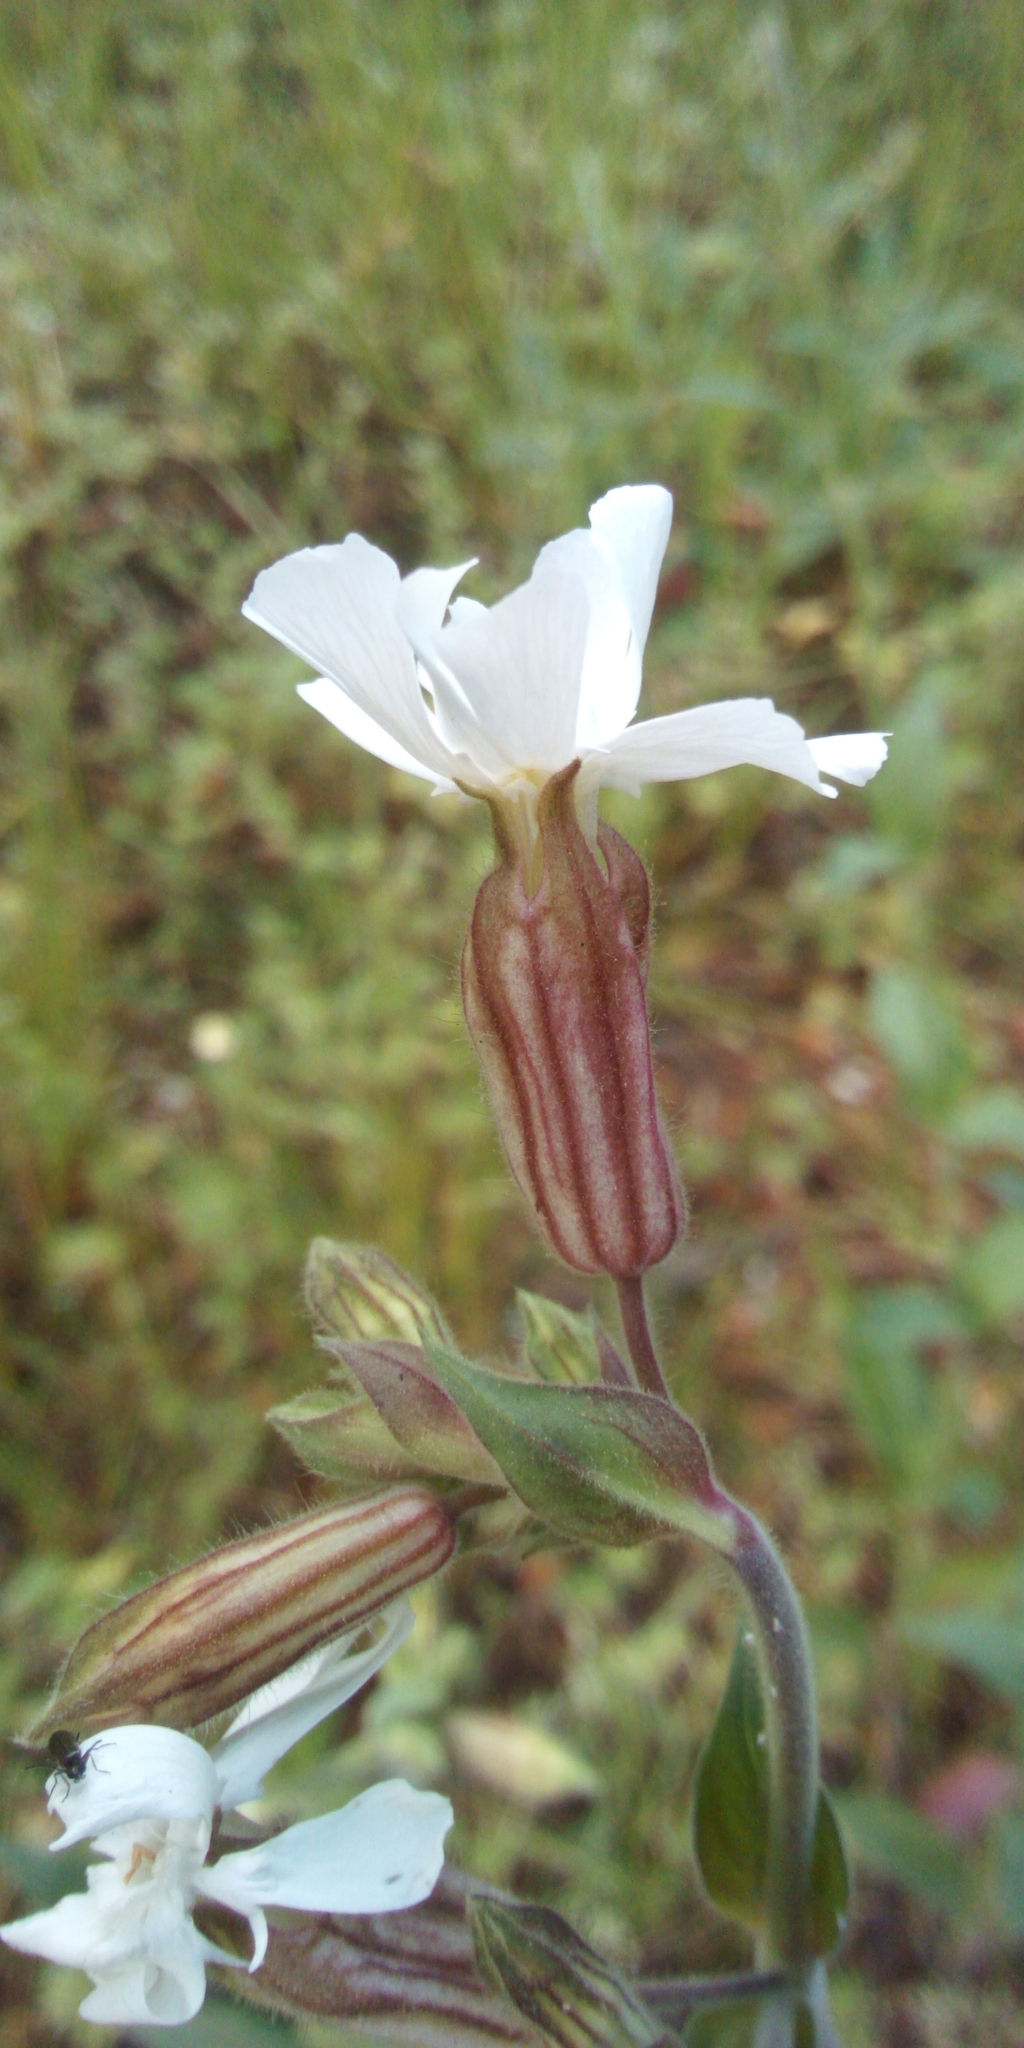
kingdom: Plantae
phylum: Tracheophyta
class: Magnoliopsida
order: Caryophyllales
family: Caryophyllaceae
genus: Silene
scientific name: Silene latifolia
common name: White campion
